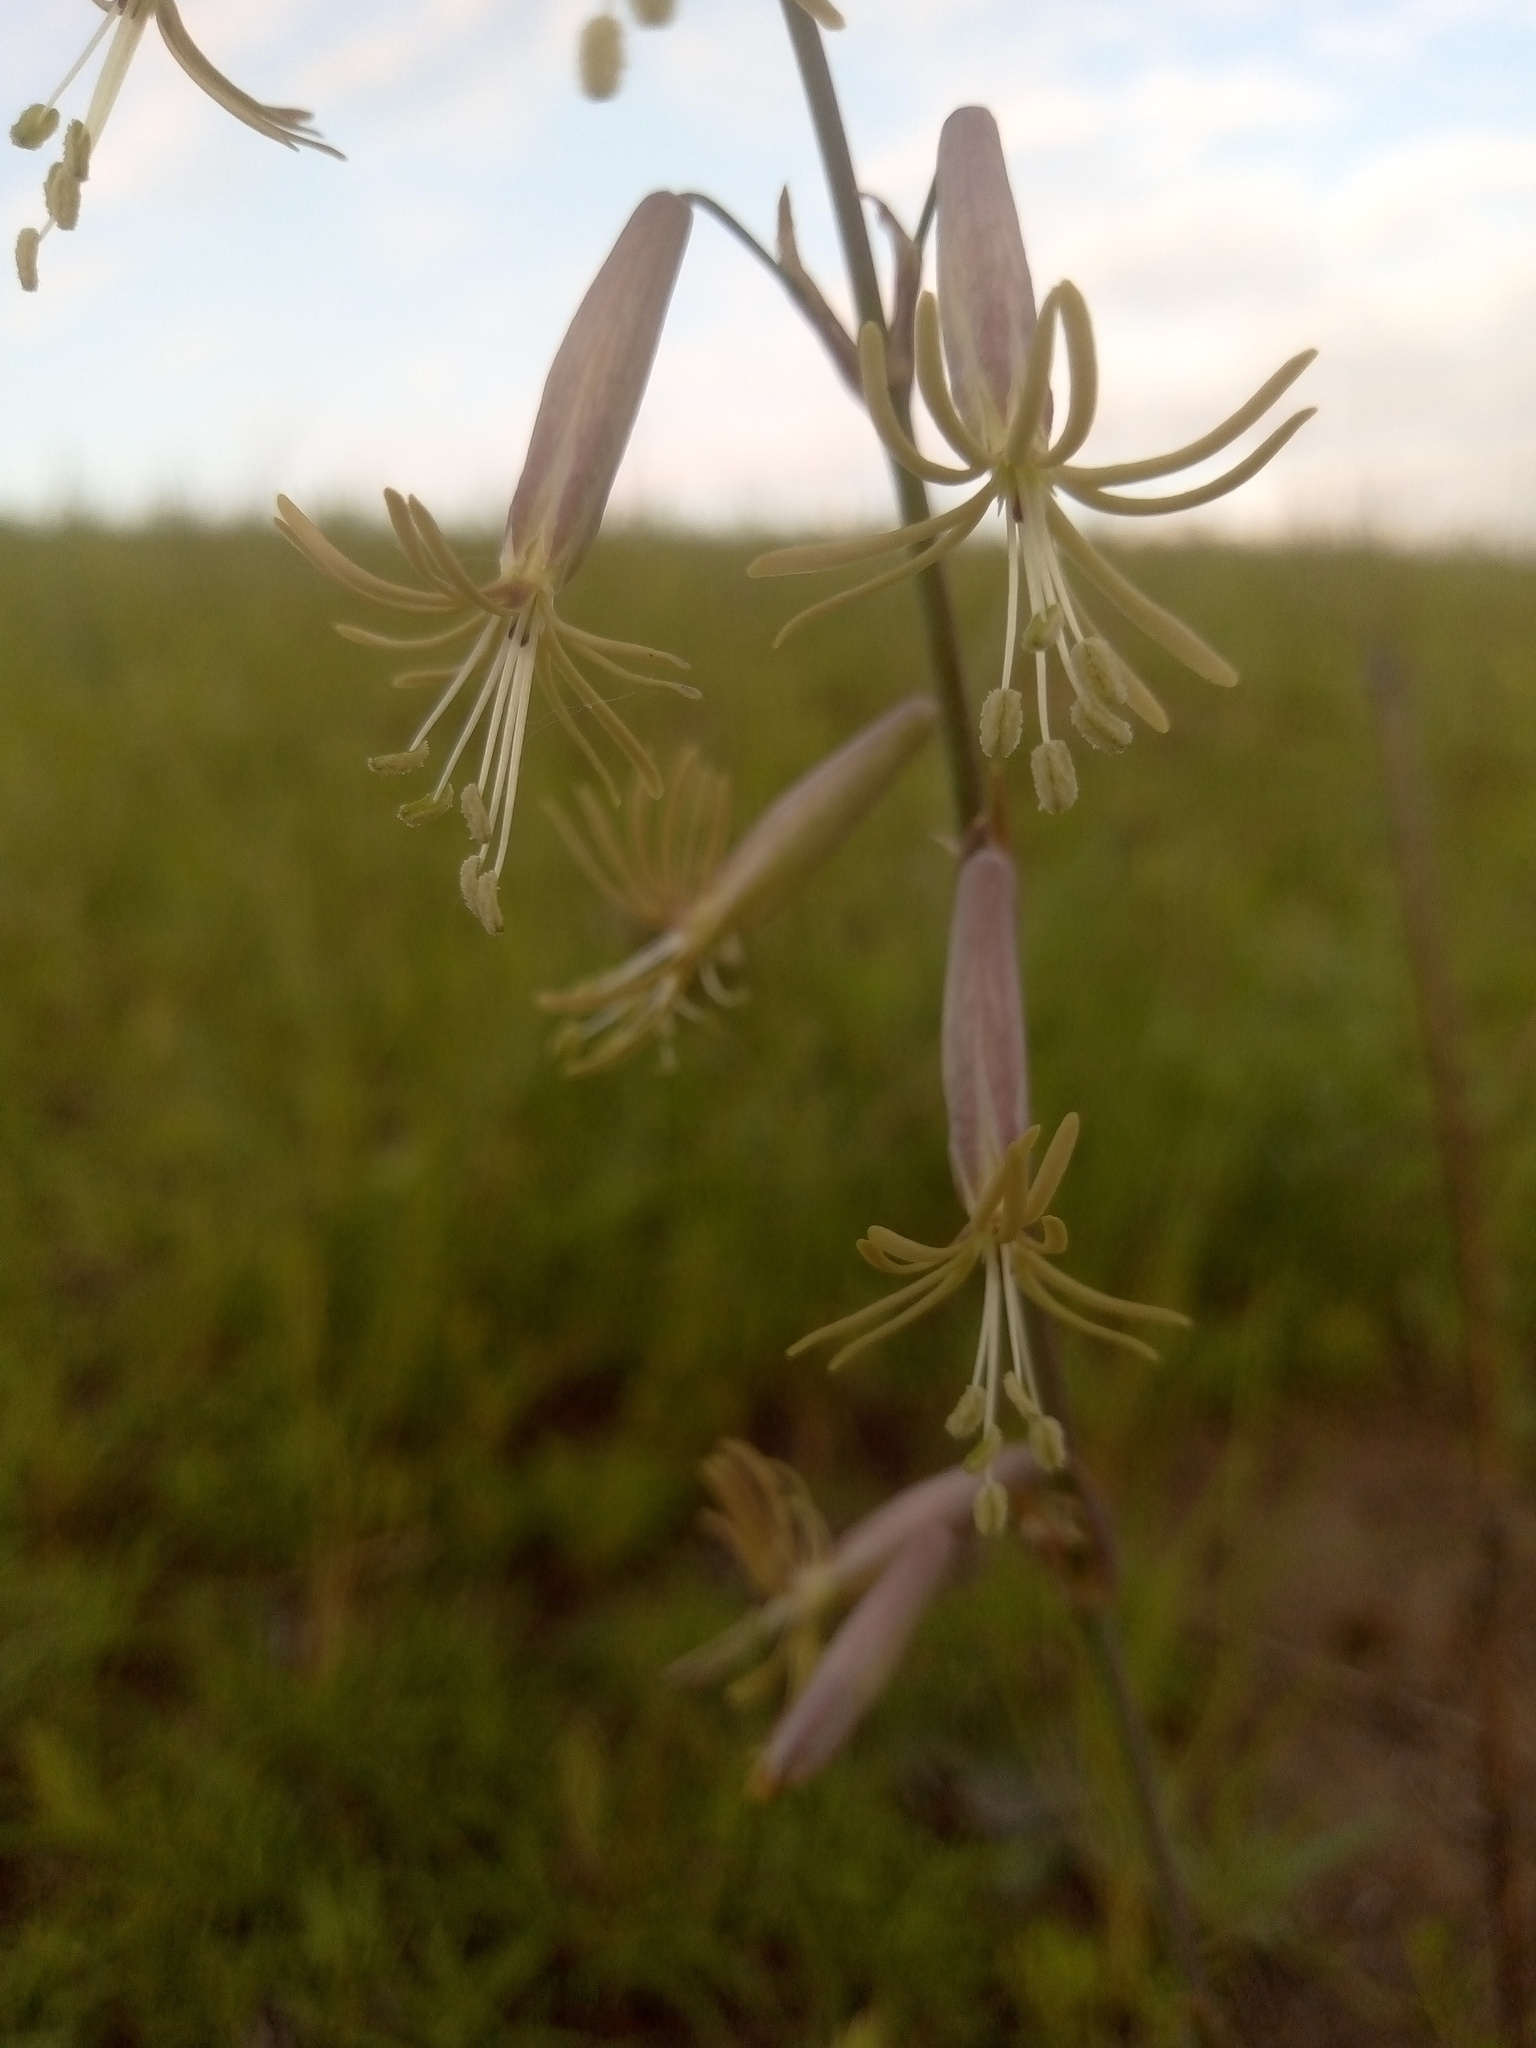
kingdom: Plantae
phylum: Tracheophyta
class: Magnoliopsida
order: Caryophyllales
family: Caryophyllaceae
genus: Silene
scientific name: Silene chlorantha
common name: Yellowgreen catchfly
